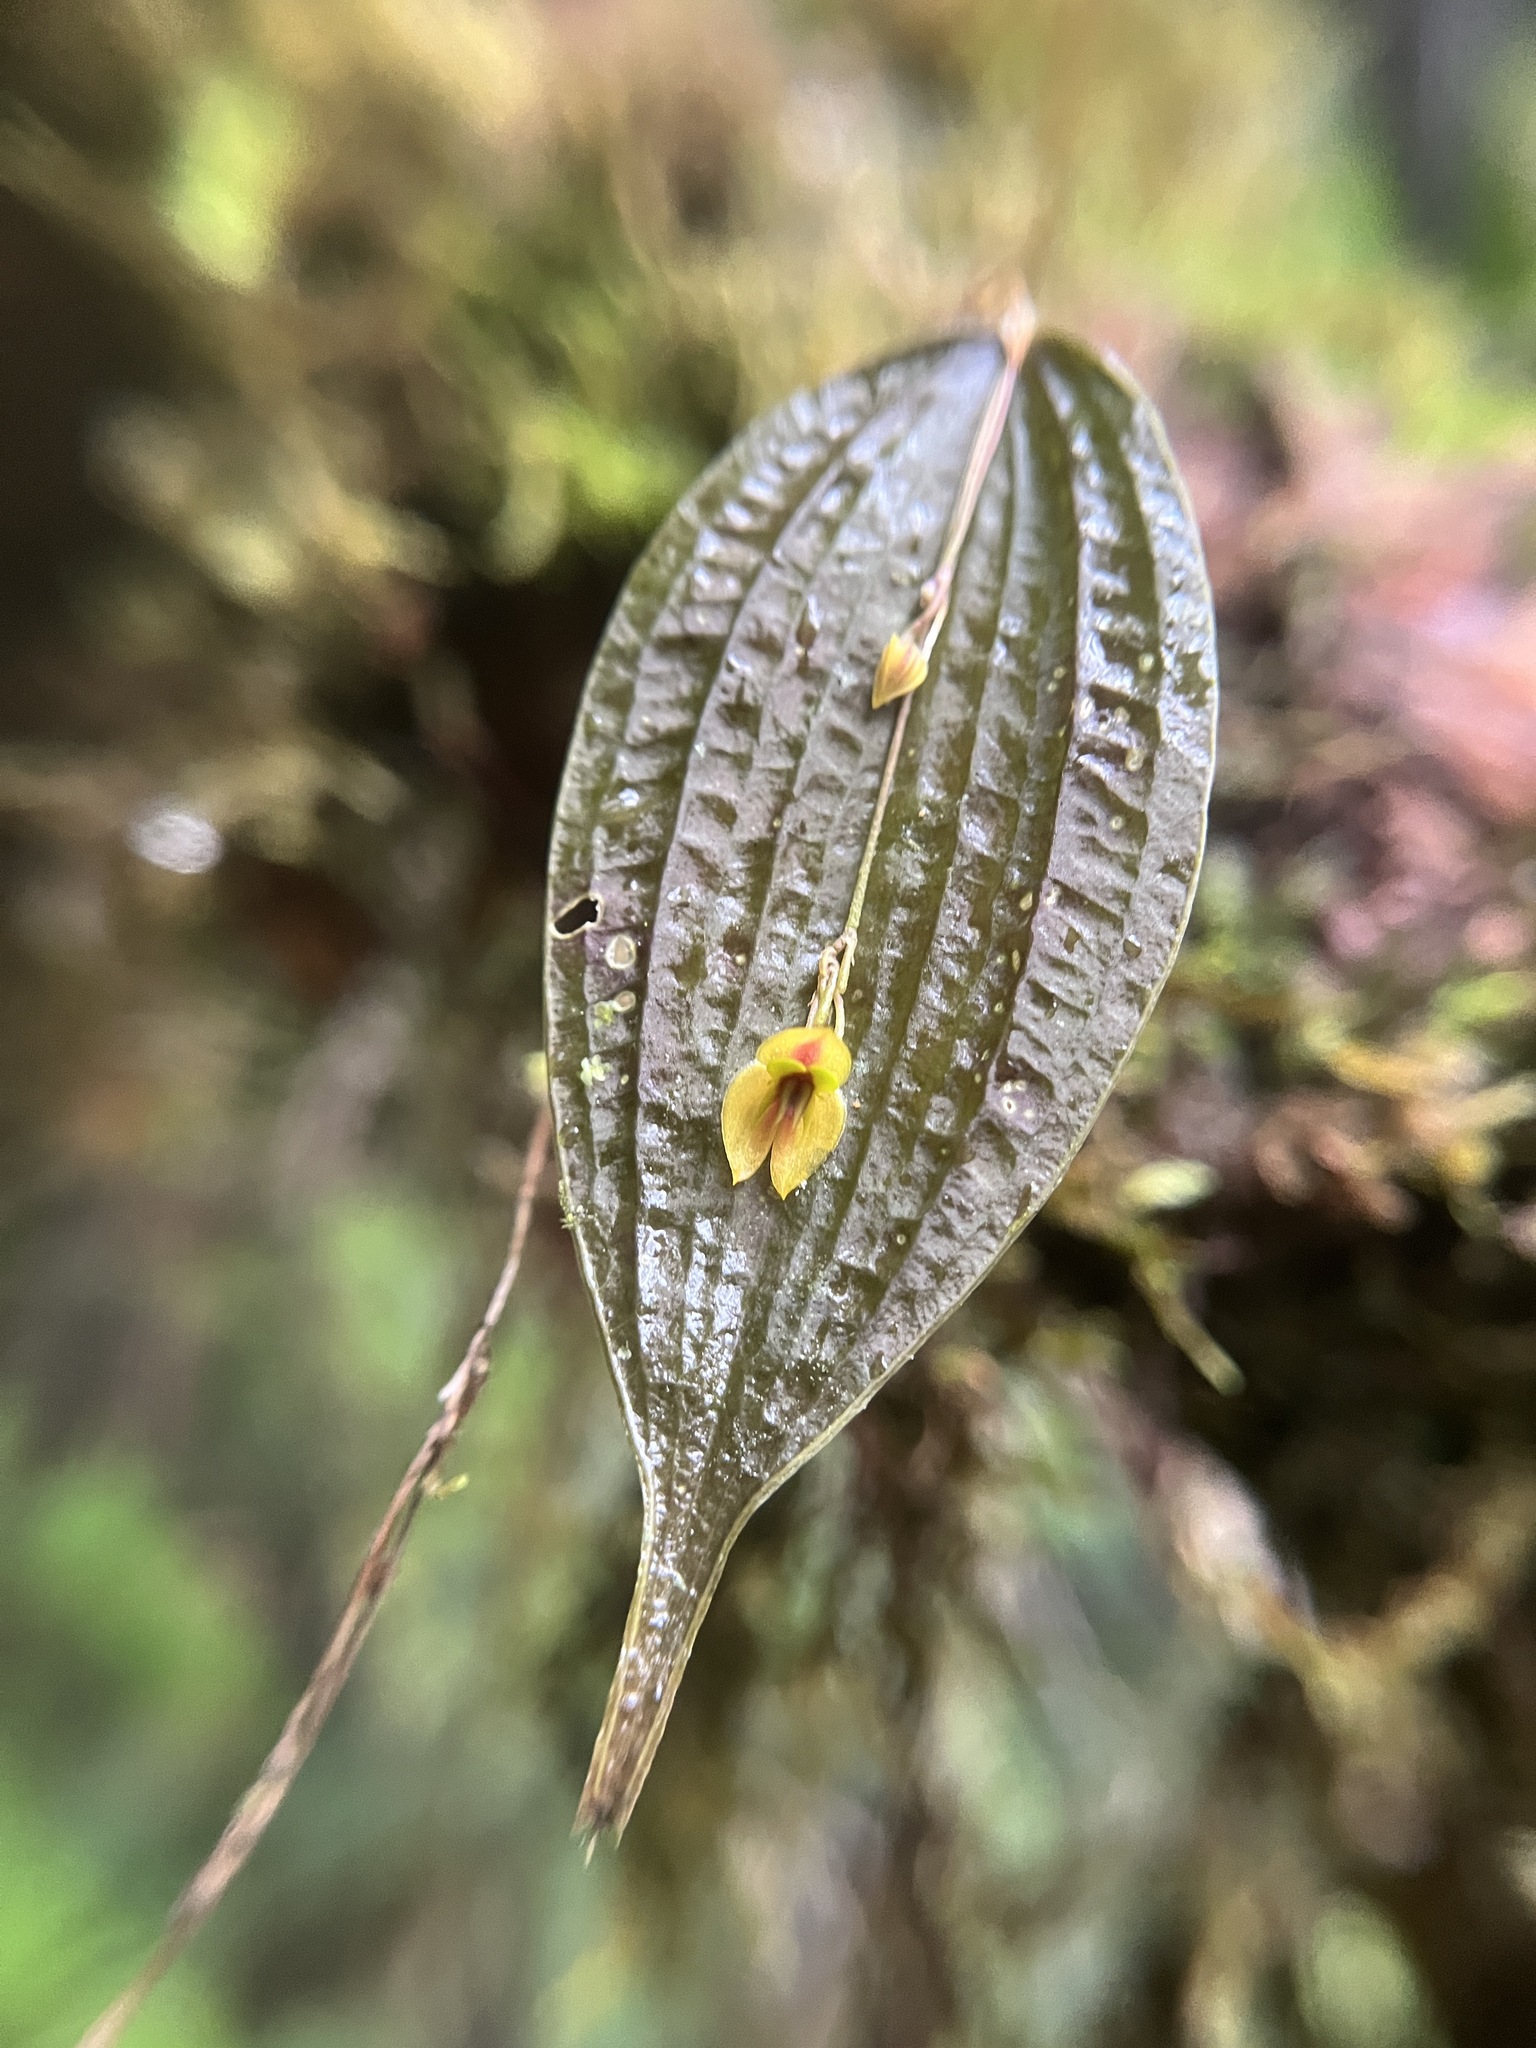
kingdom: Plantae
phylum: Tracheophyta
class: Liliopsida
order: Asparagales
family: Orchidaceae
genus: Lepanthes
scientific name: Lepanthes montezumae
